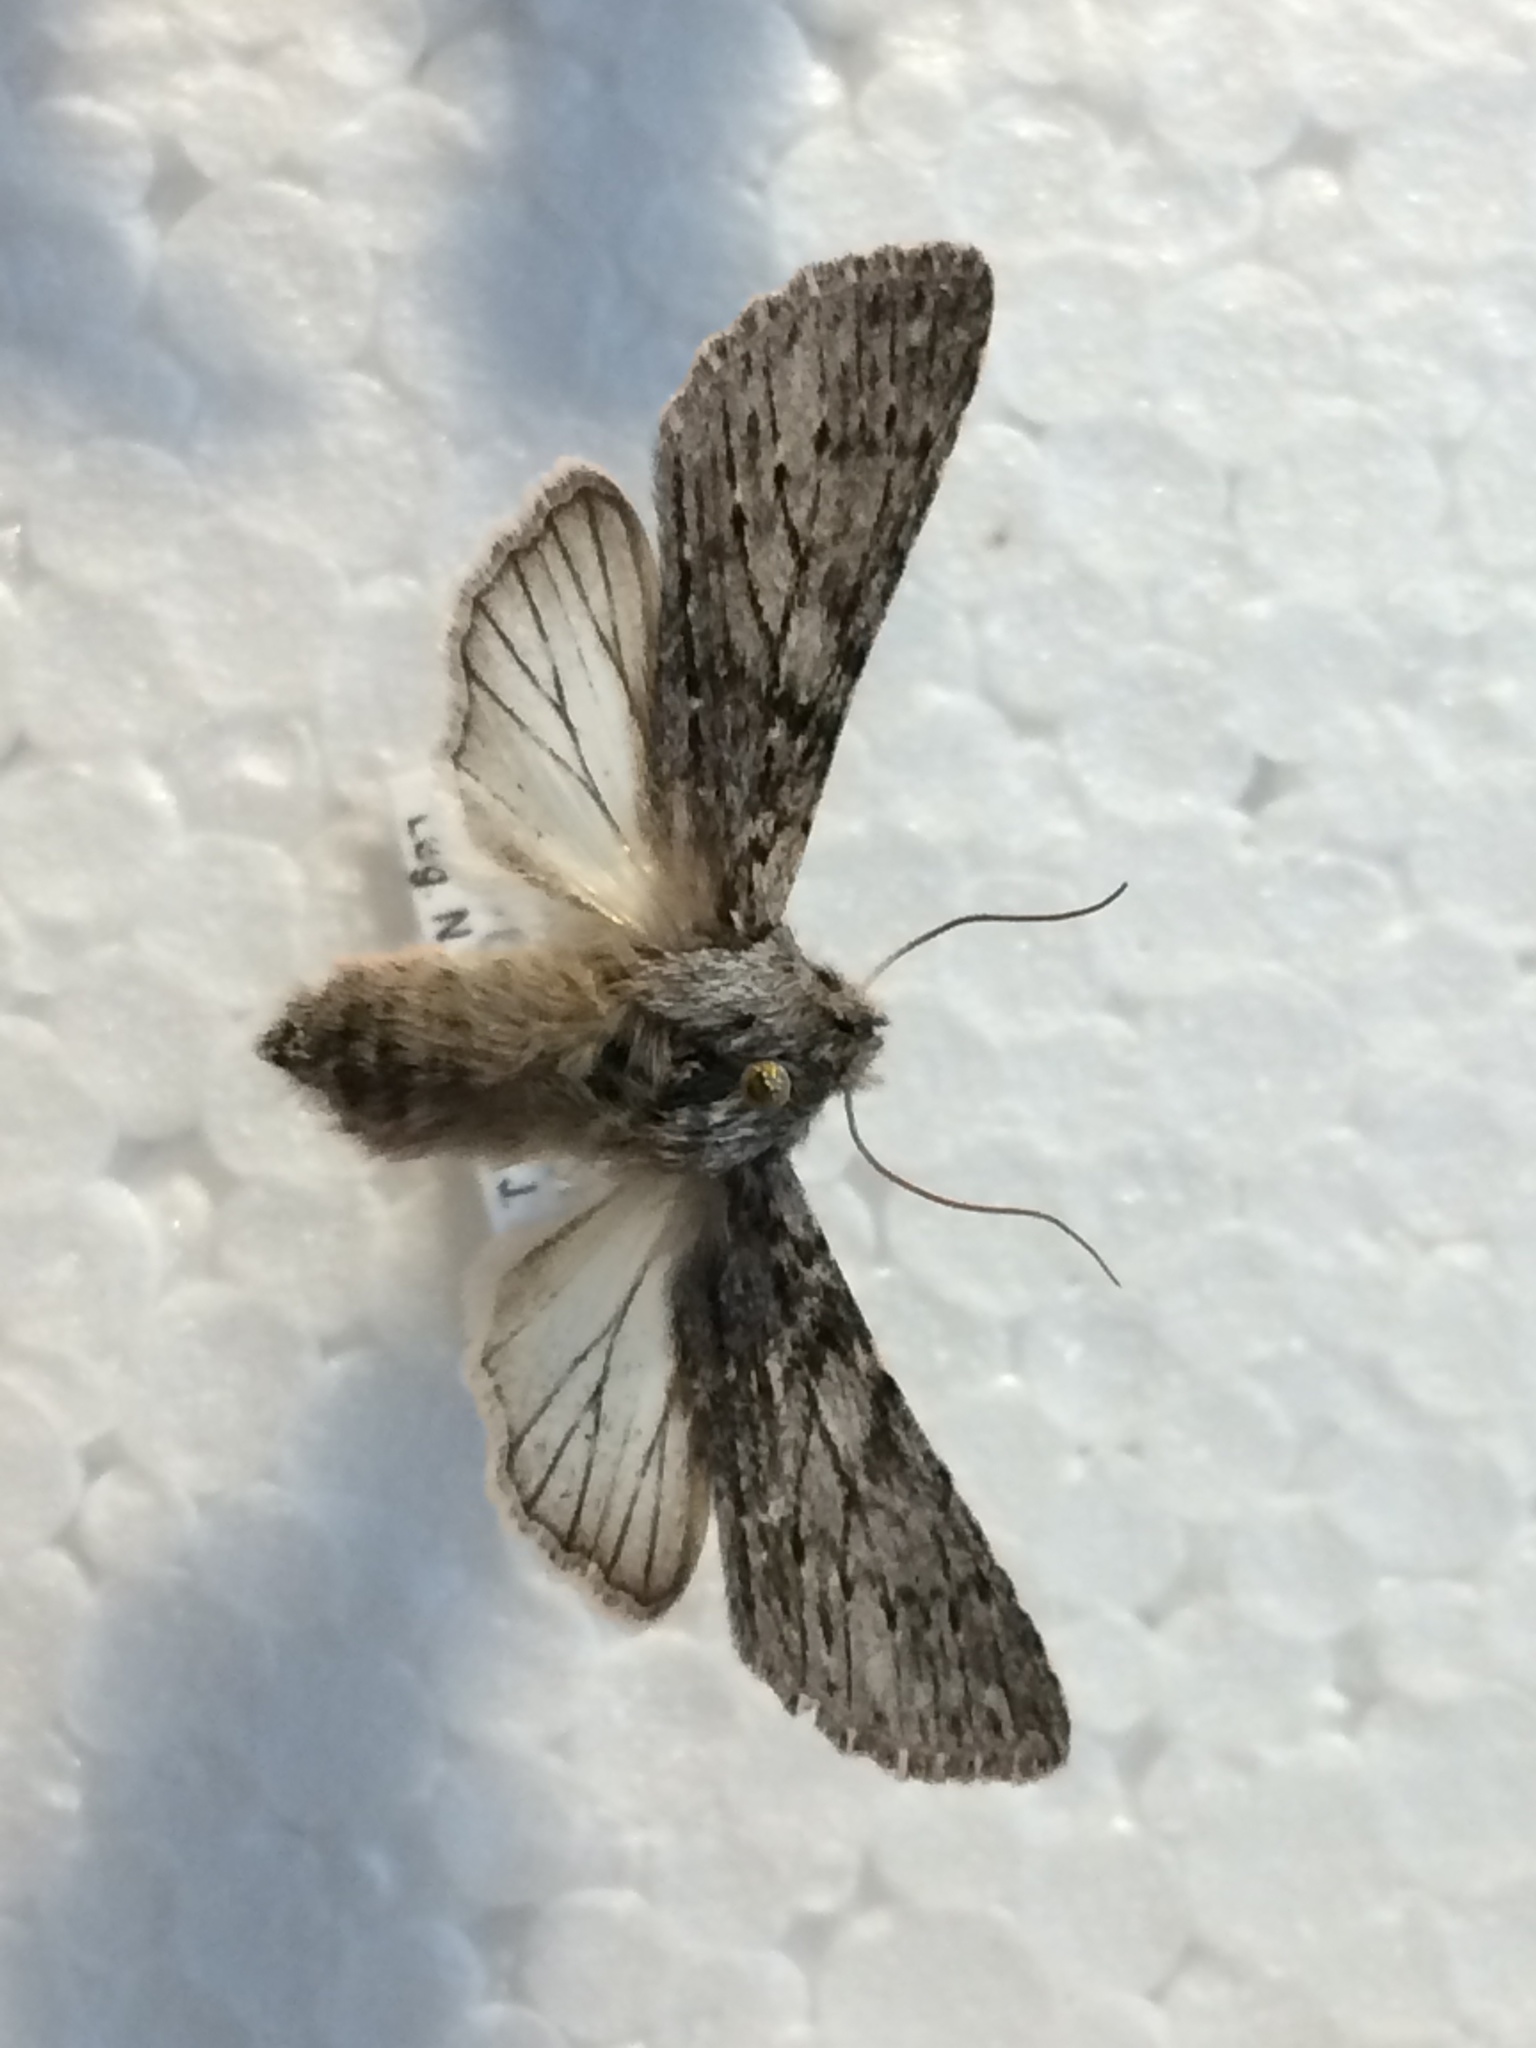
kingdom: Animalia
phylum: Arthropoda
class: Insecta
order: Lepidoptera
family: Notodontidae
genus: Dicranura
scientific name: Dicranura ulmi
